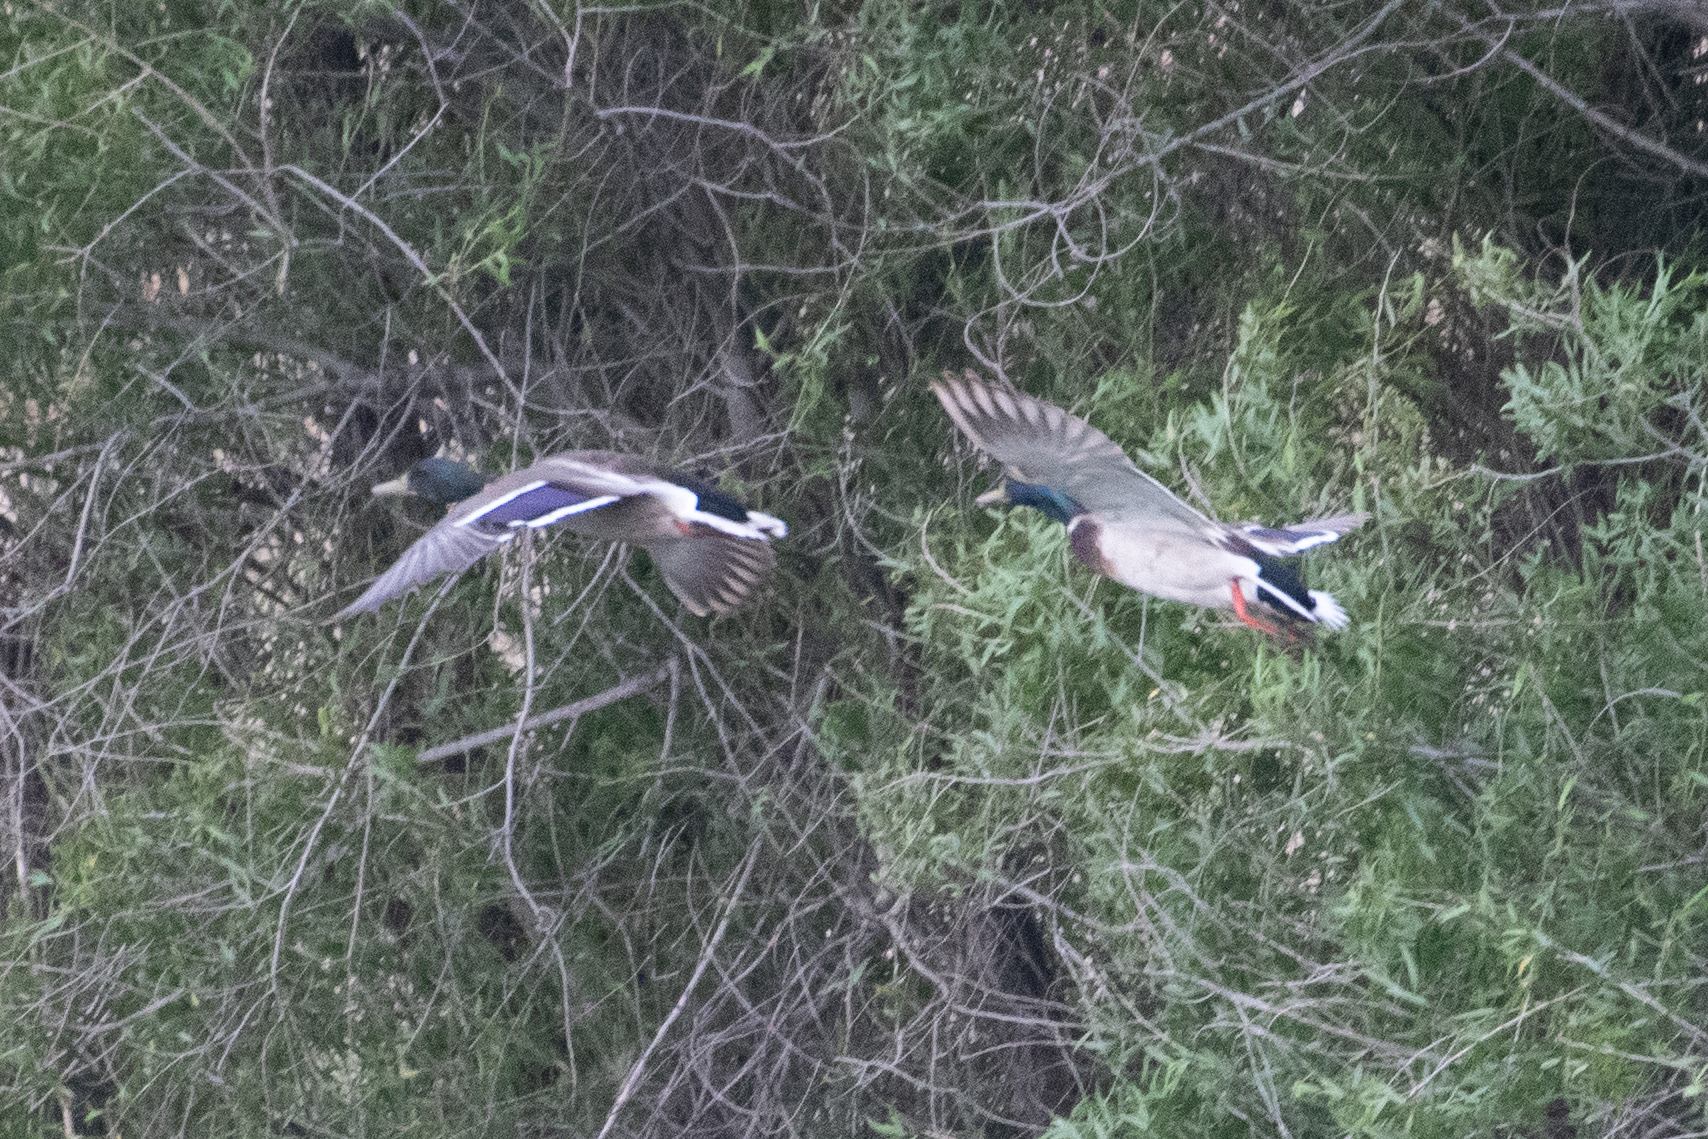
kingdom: Animalia
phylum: Chordata
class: Aves
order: Anseriformes
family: Anatidae
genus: Anas
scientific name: Anas platyrhynchos
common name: Mallard
